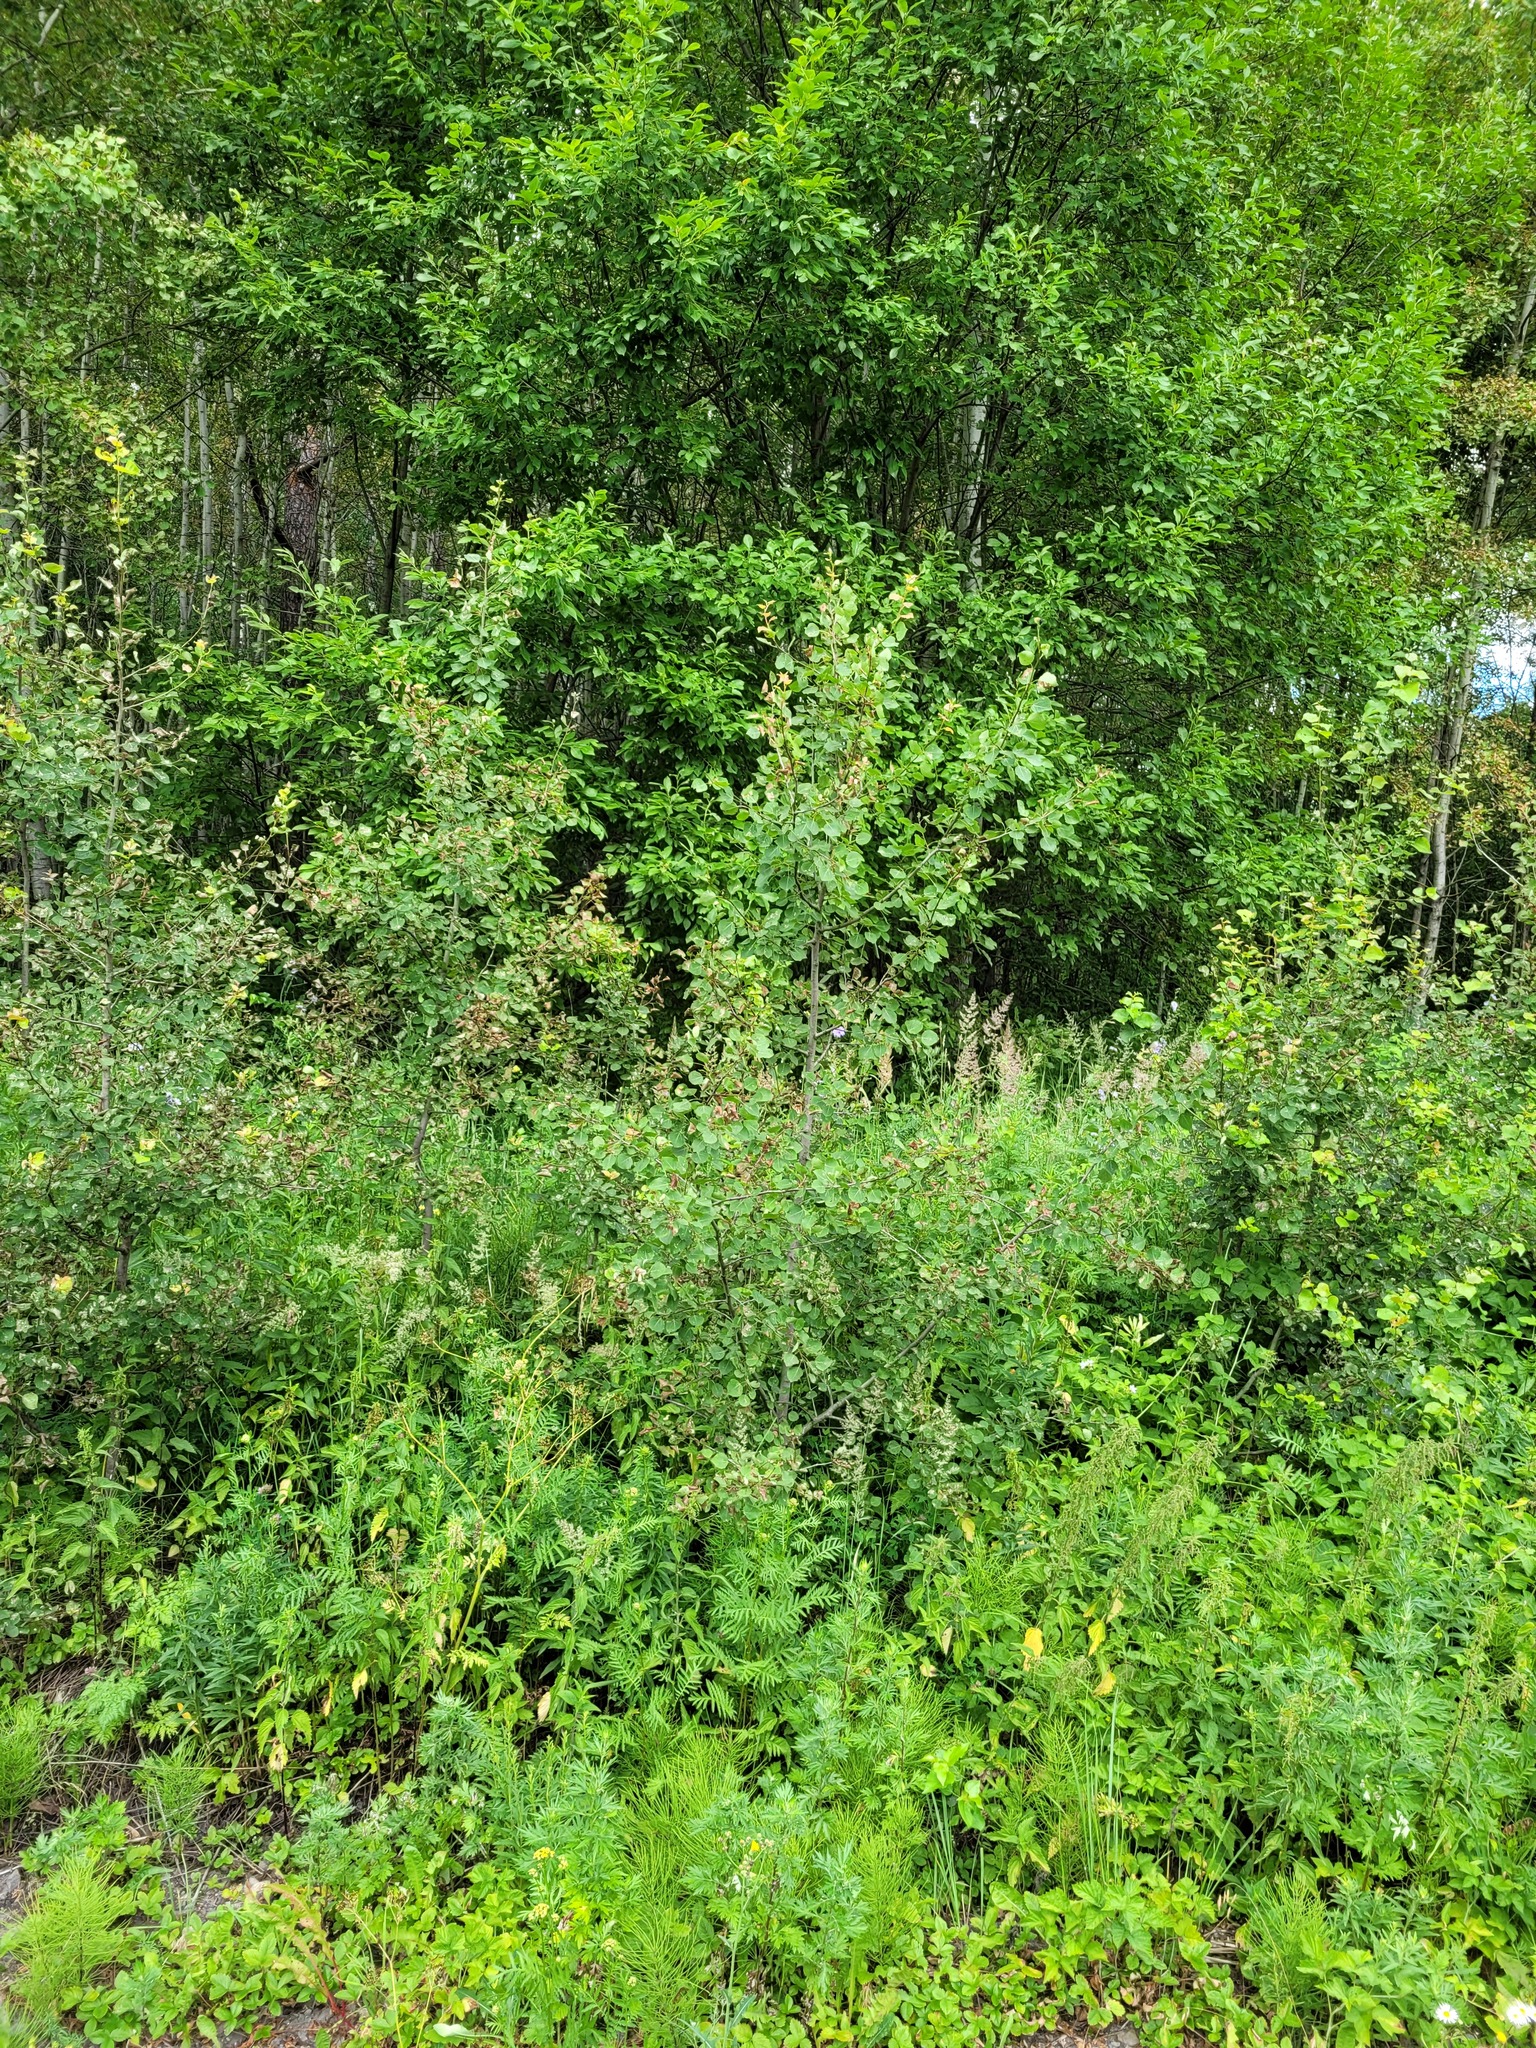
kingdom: Plantae
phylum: Tracheophyta
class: Magnoliopsida
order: Malpighiales
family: Salicaceae
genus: Populus
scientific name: Populus tremula
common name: European aspen
